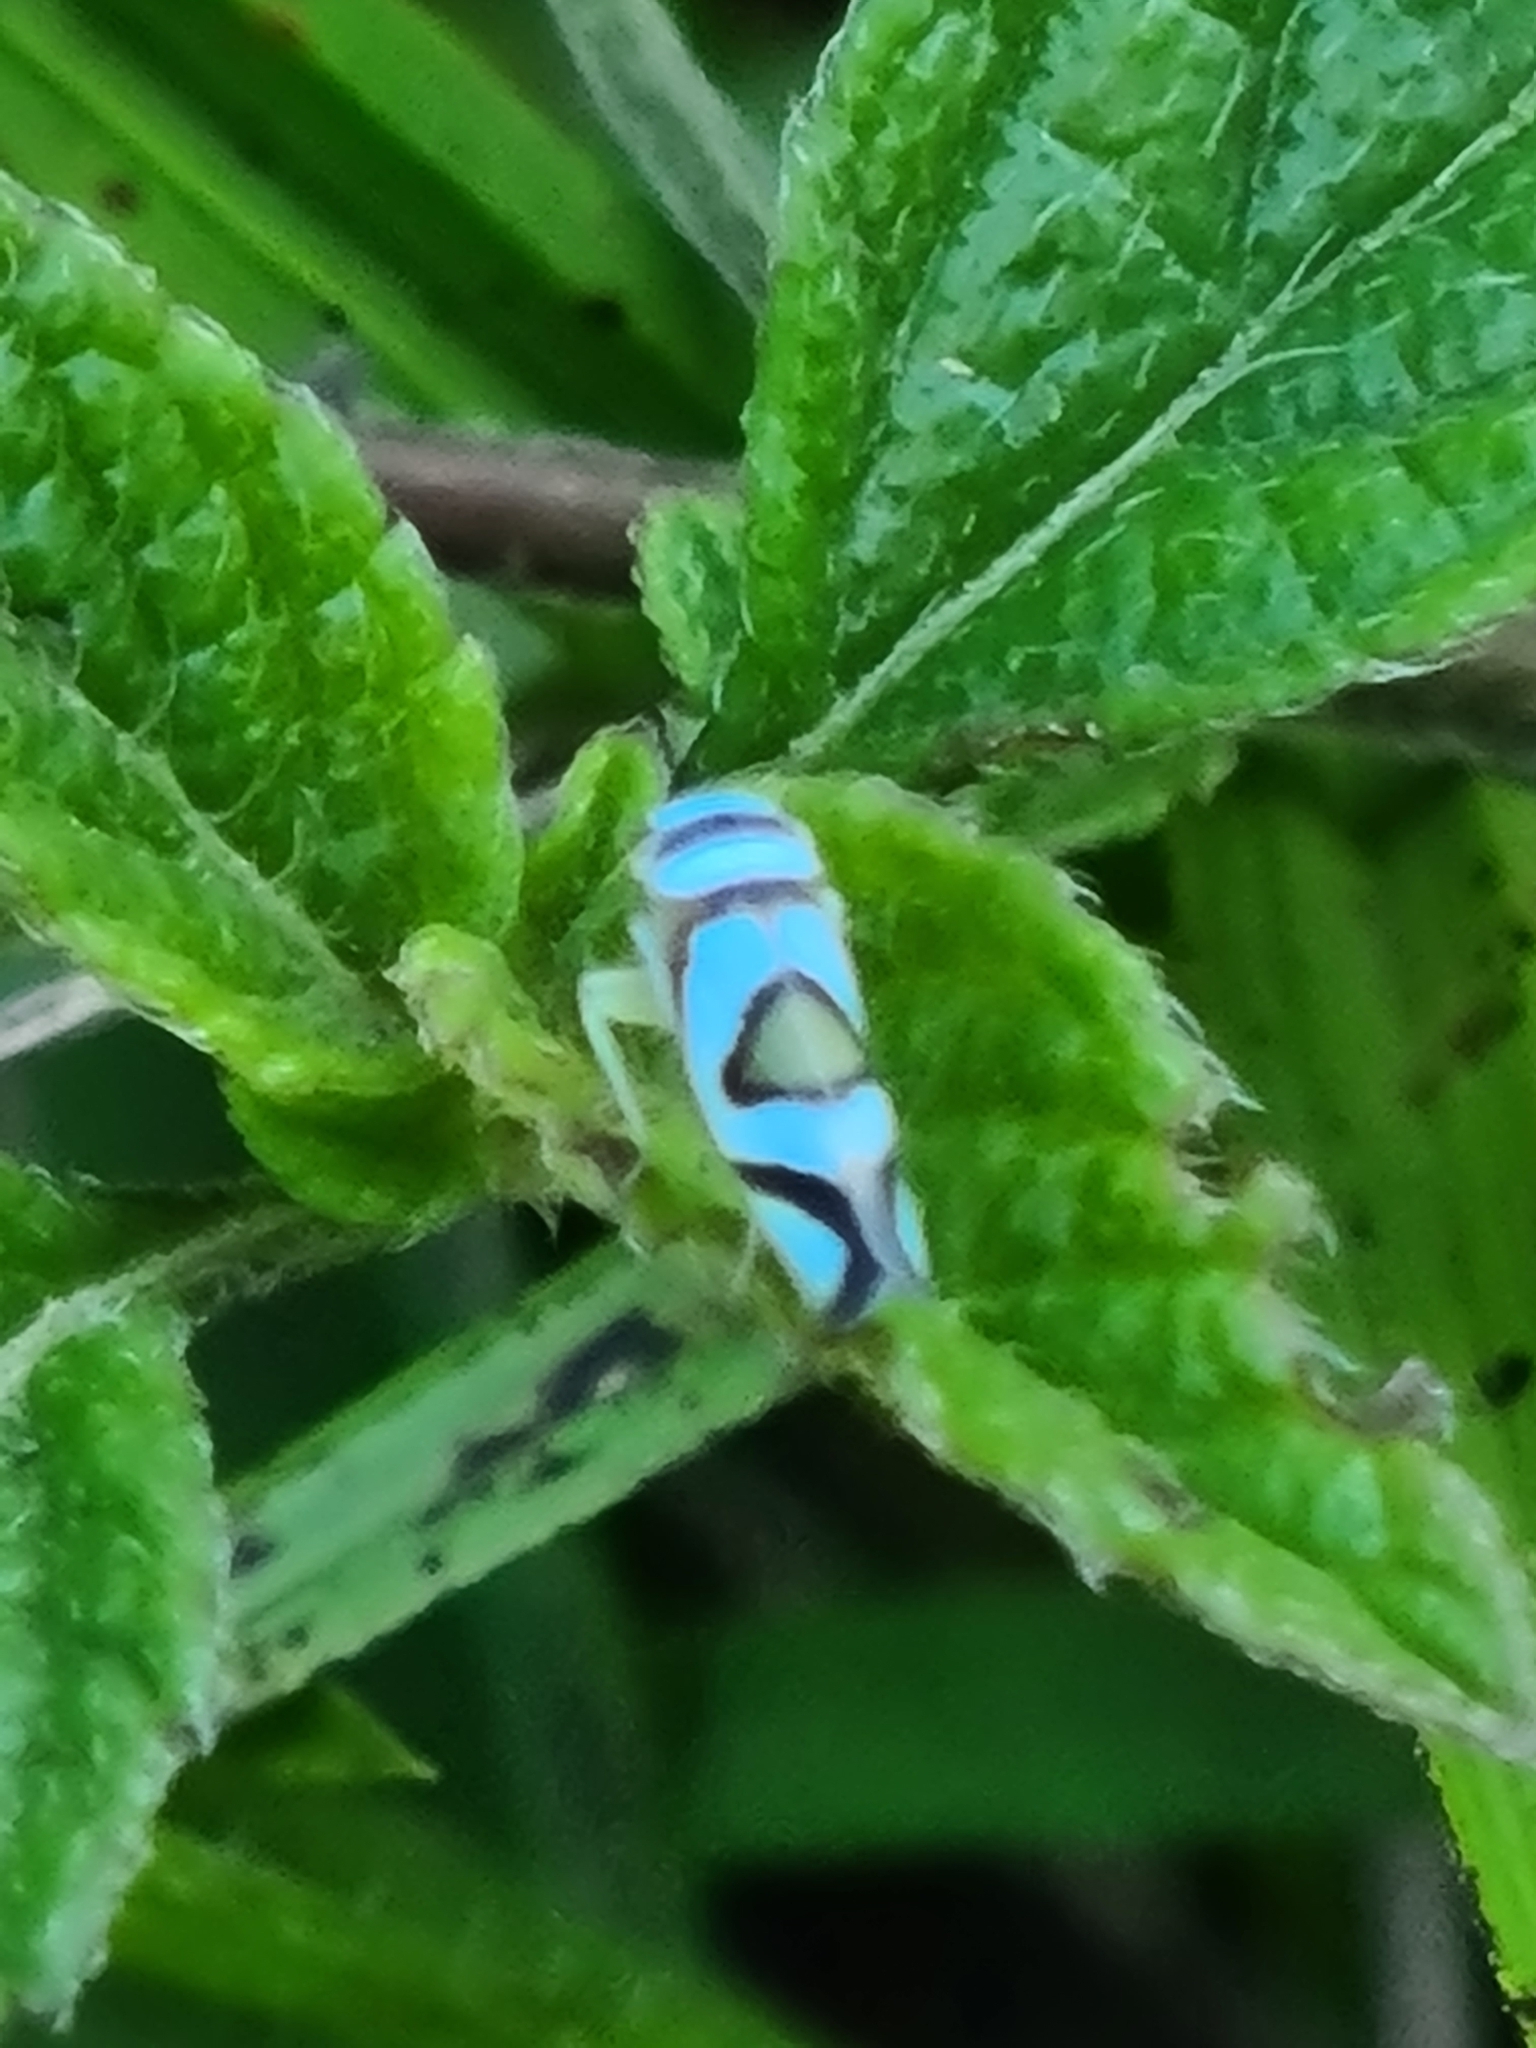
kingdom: Animalia
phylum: Arthropoda
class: Insecta
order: Hemiptera
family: Cicadellidae
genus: Macugonalia
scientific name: Macugonalia moesta
